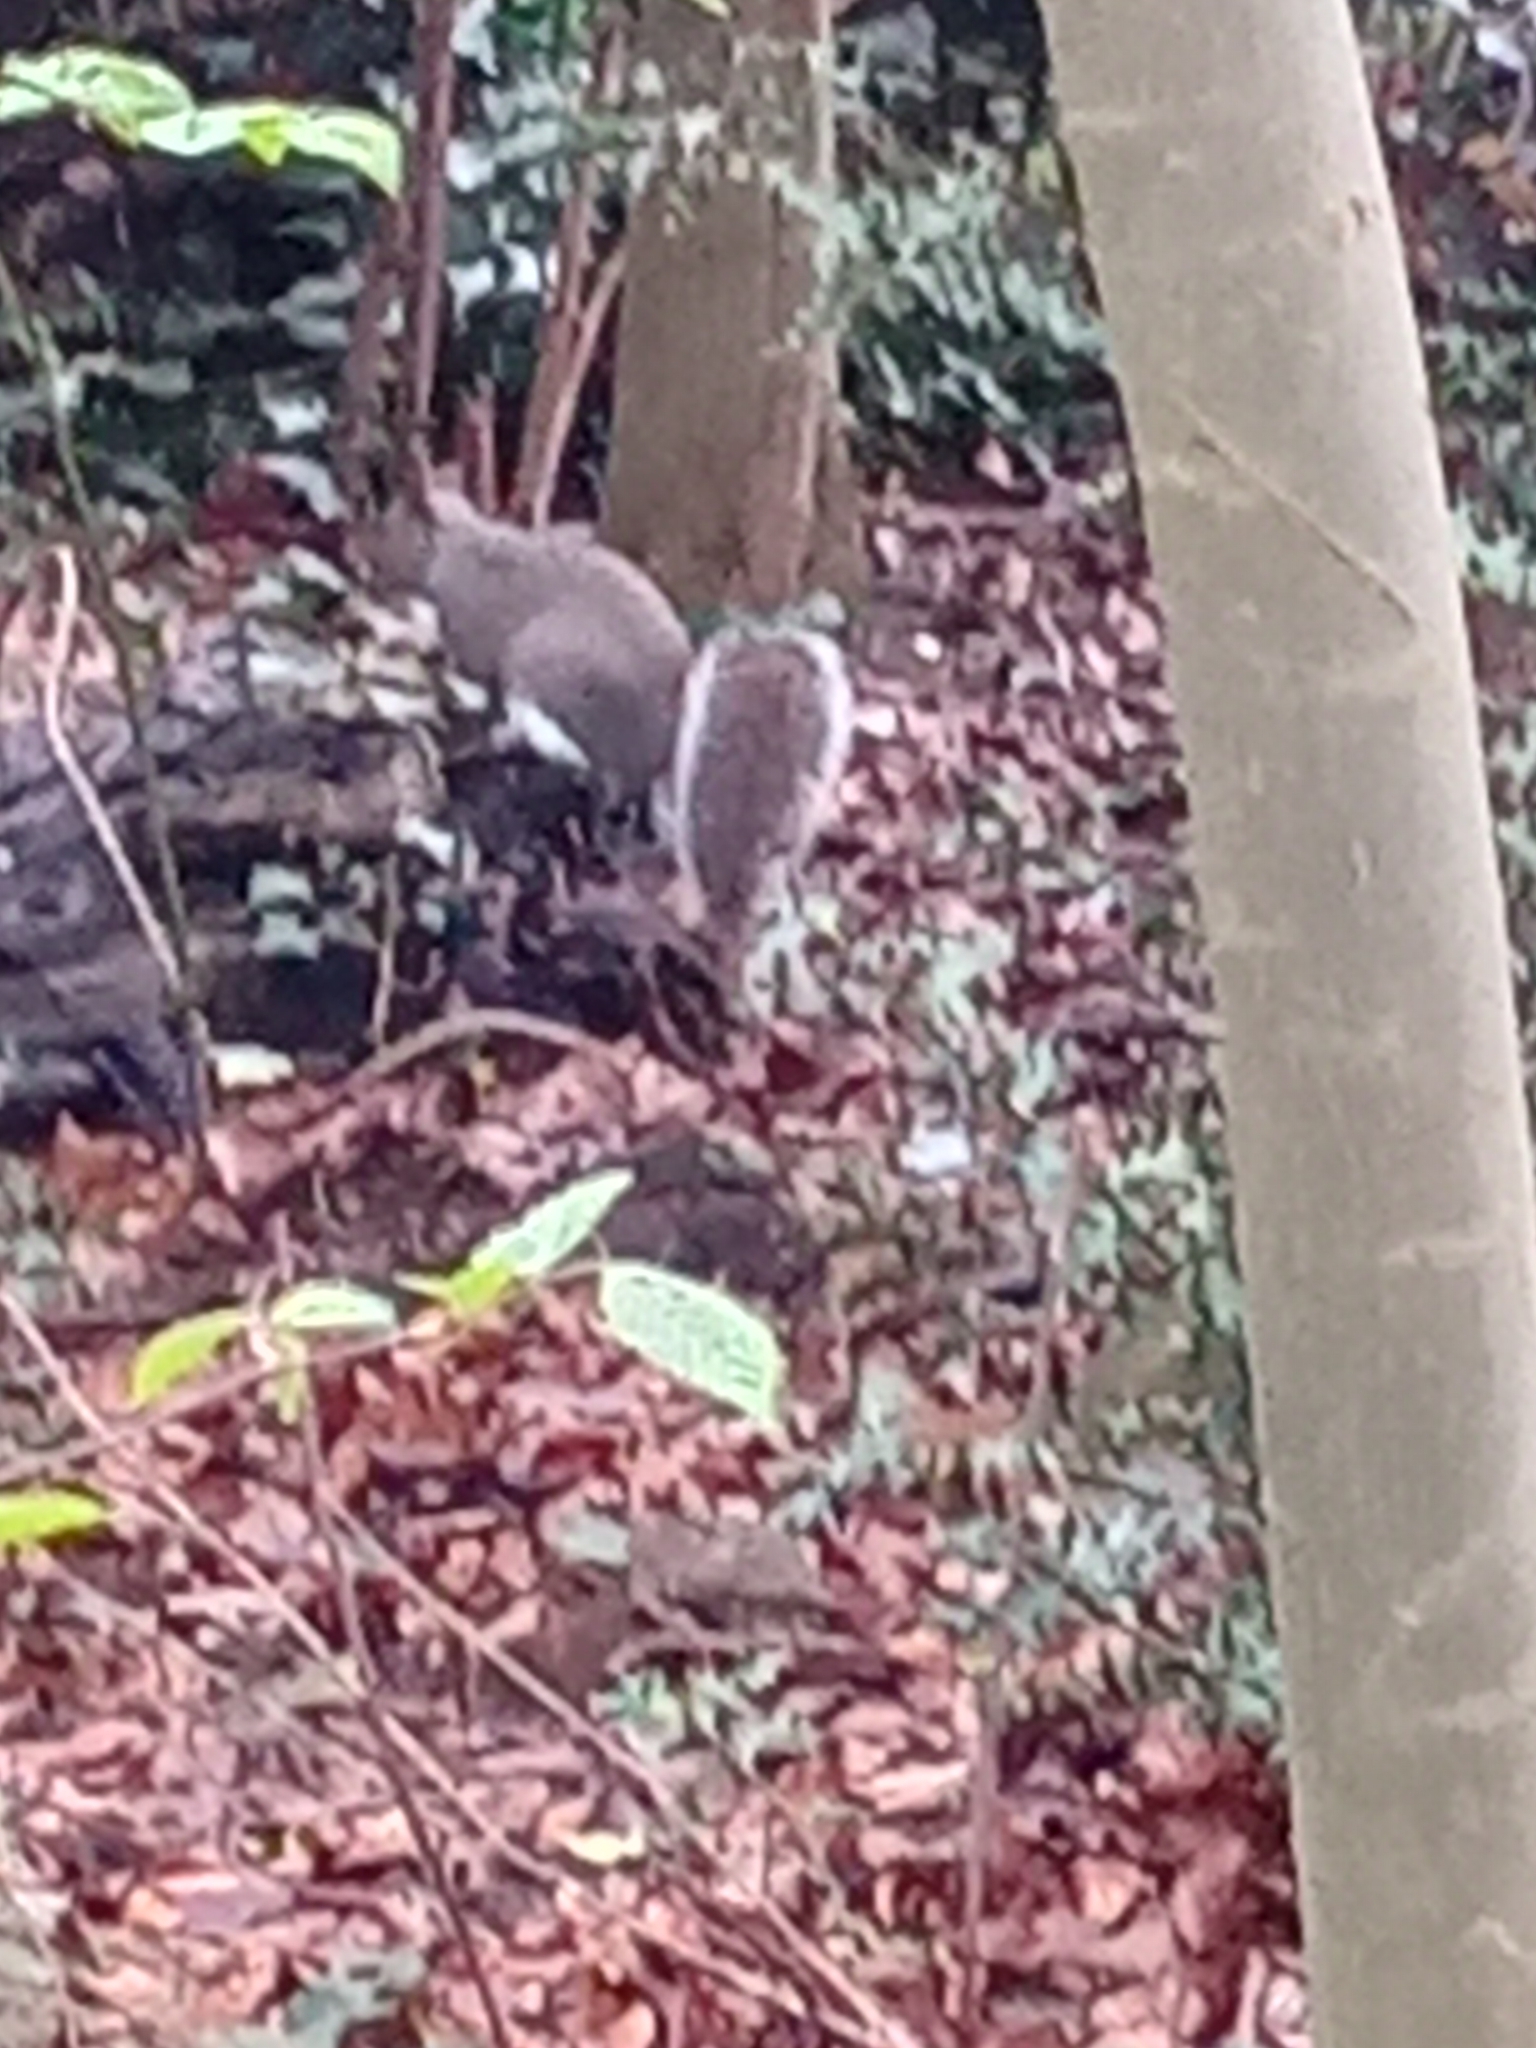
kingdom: Animalia
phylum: Chordata
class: Mammalia
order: Rodentia
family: Sciuridae
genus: Sciurus
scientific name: Sciurus carolinensis
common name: Eastern gray squirrel
